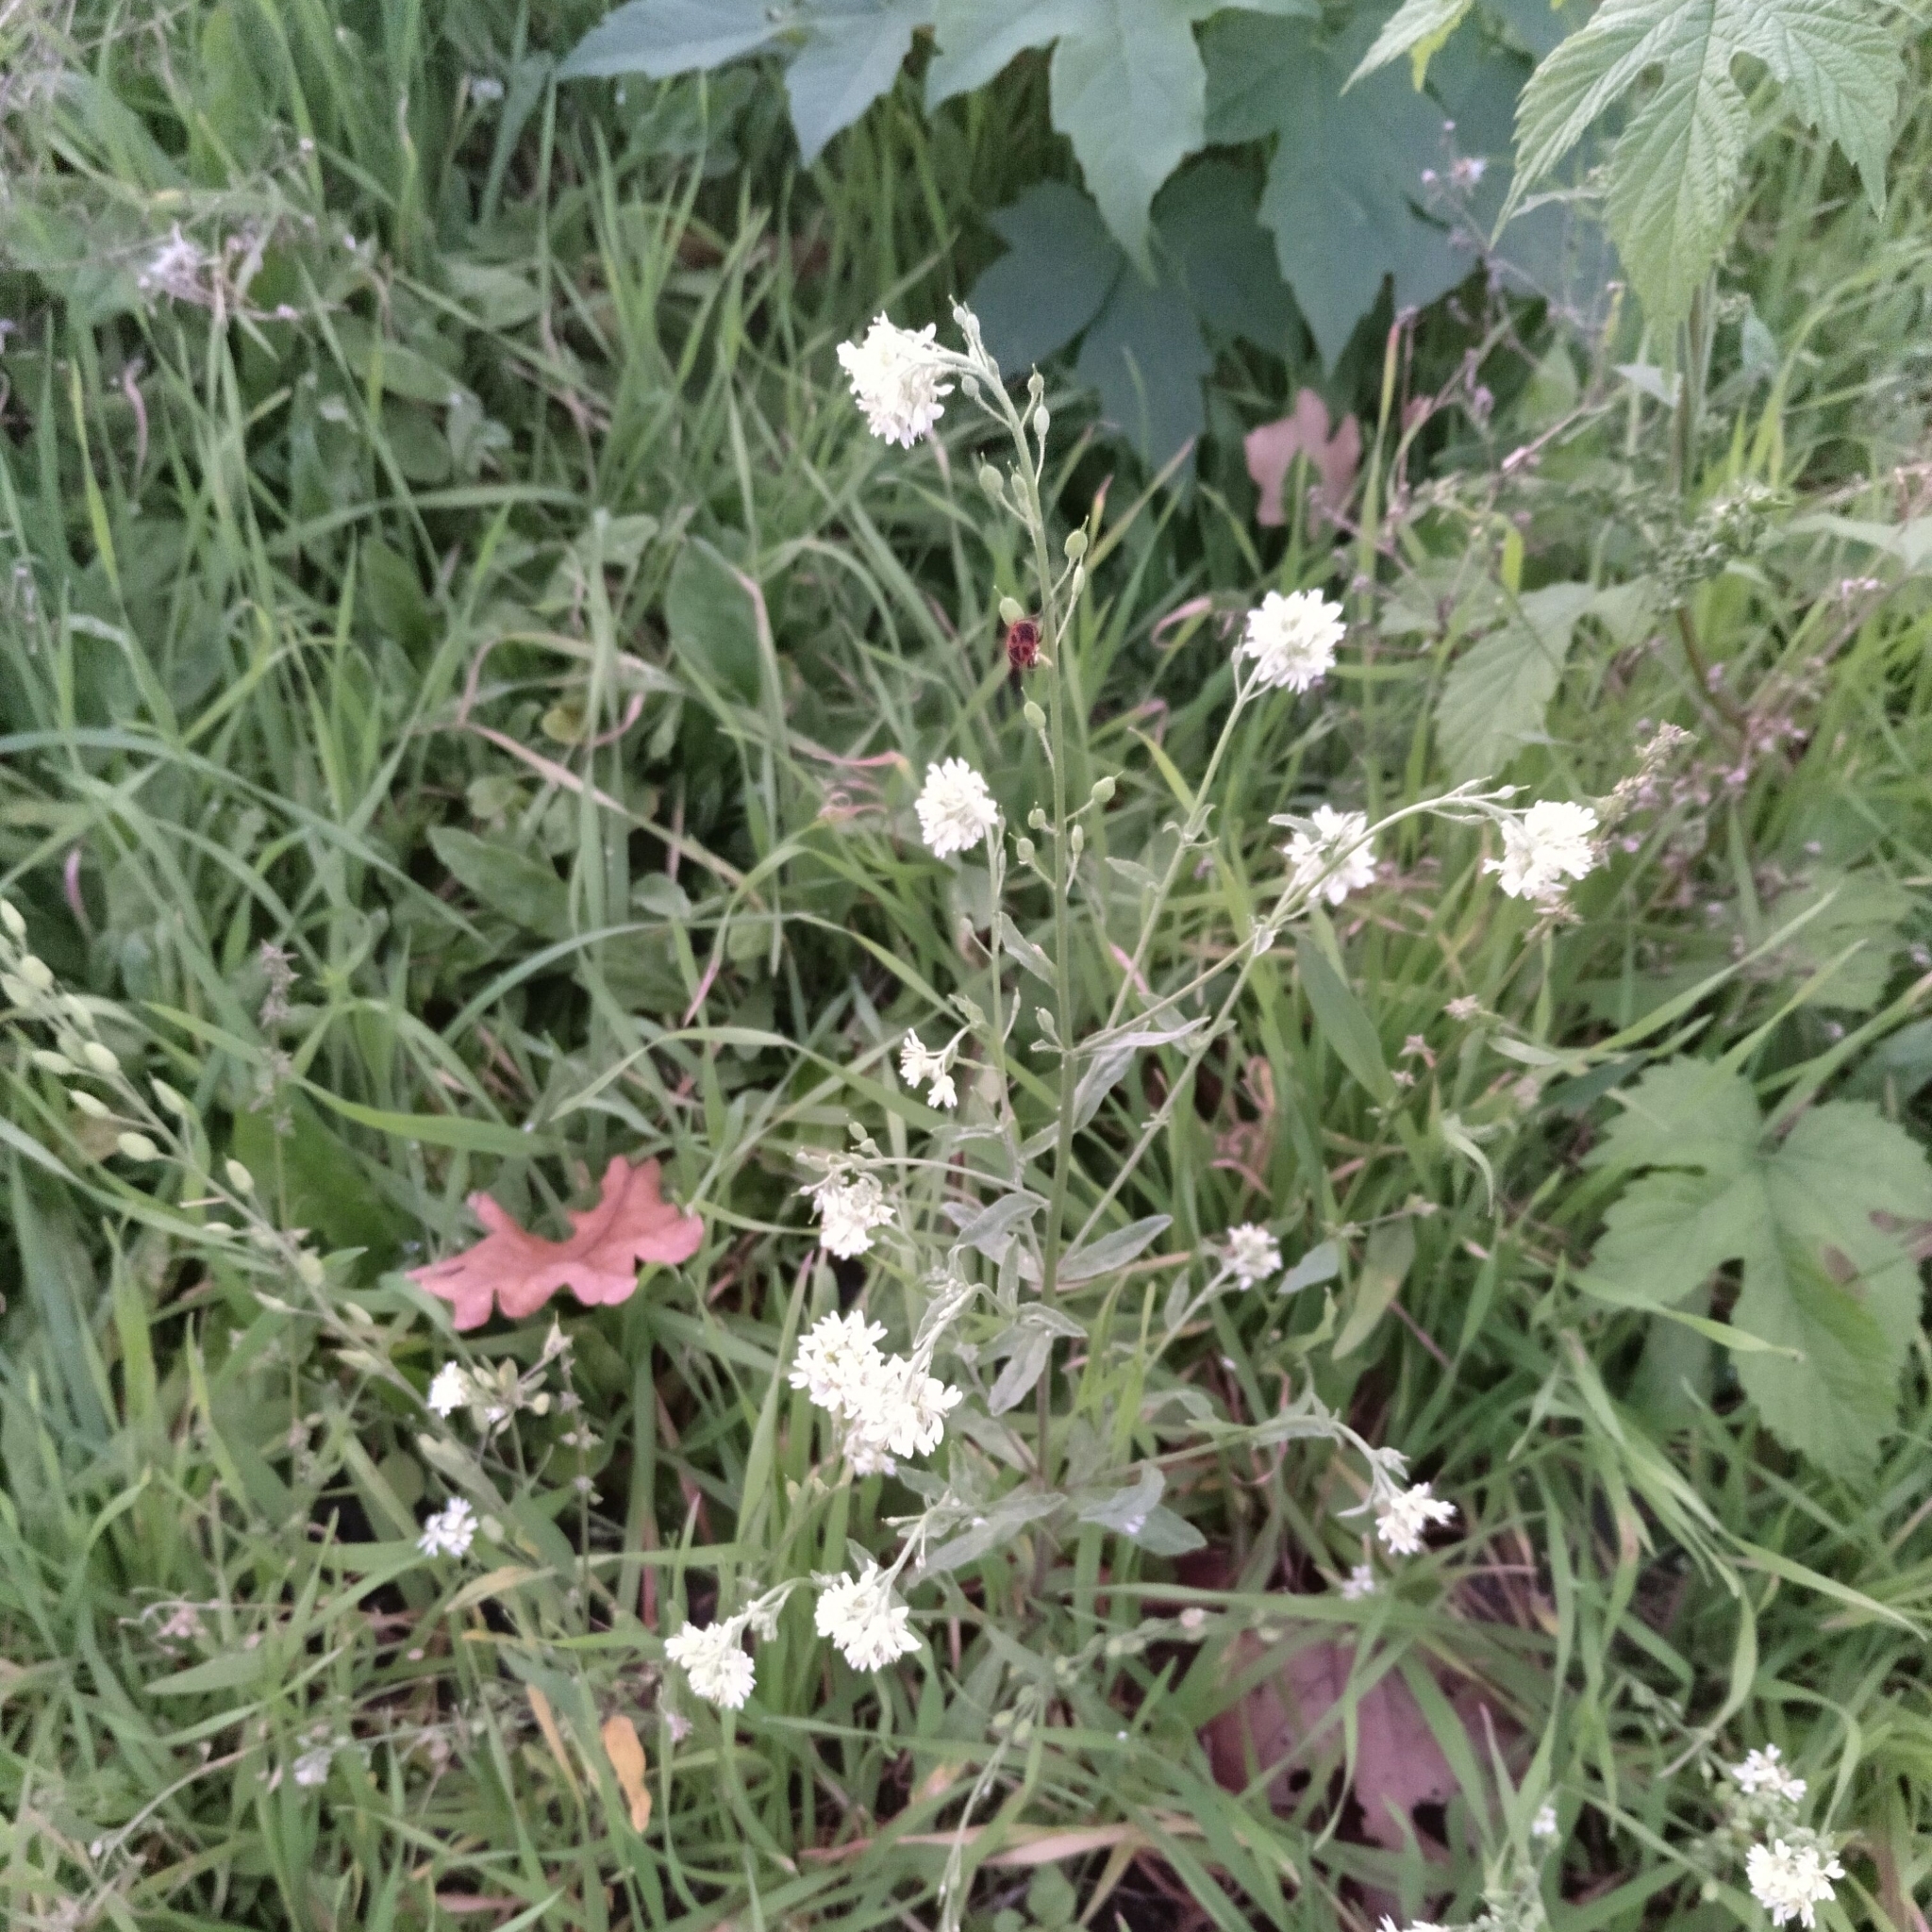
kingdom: Plantae
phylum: Tracheophyta
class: Magnoliopsida
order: Brassicales
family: Brassicaceae
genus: Berteroa
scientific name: Berteroa incana
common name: Hoary alison
